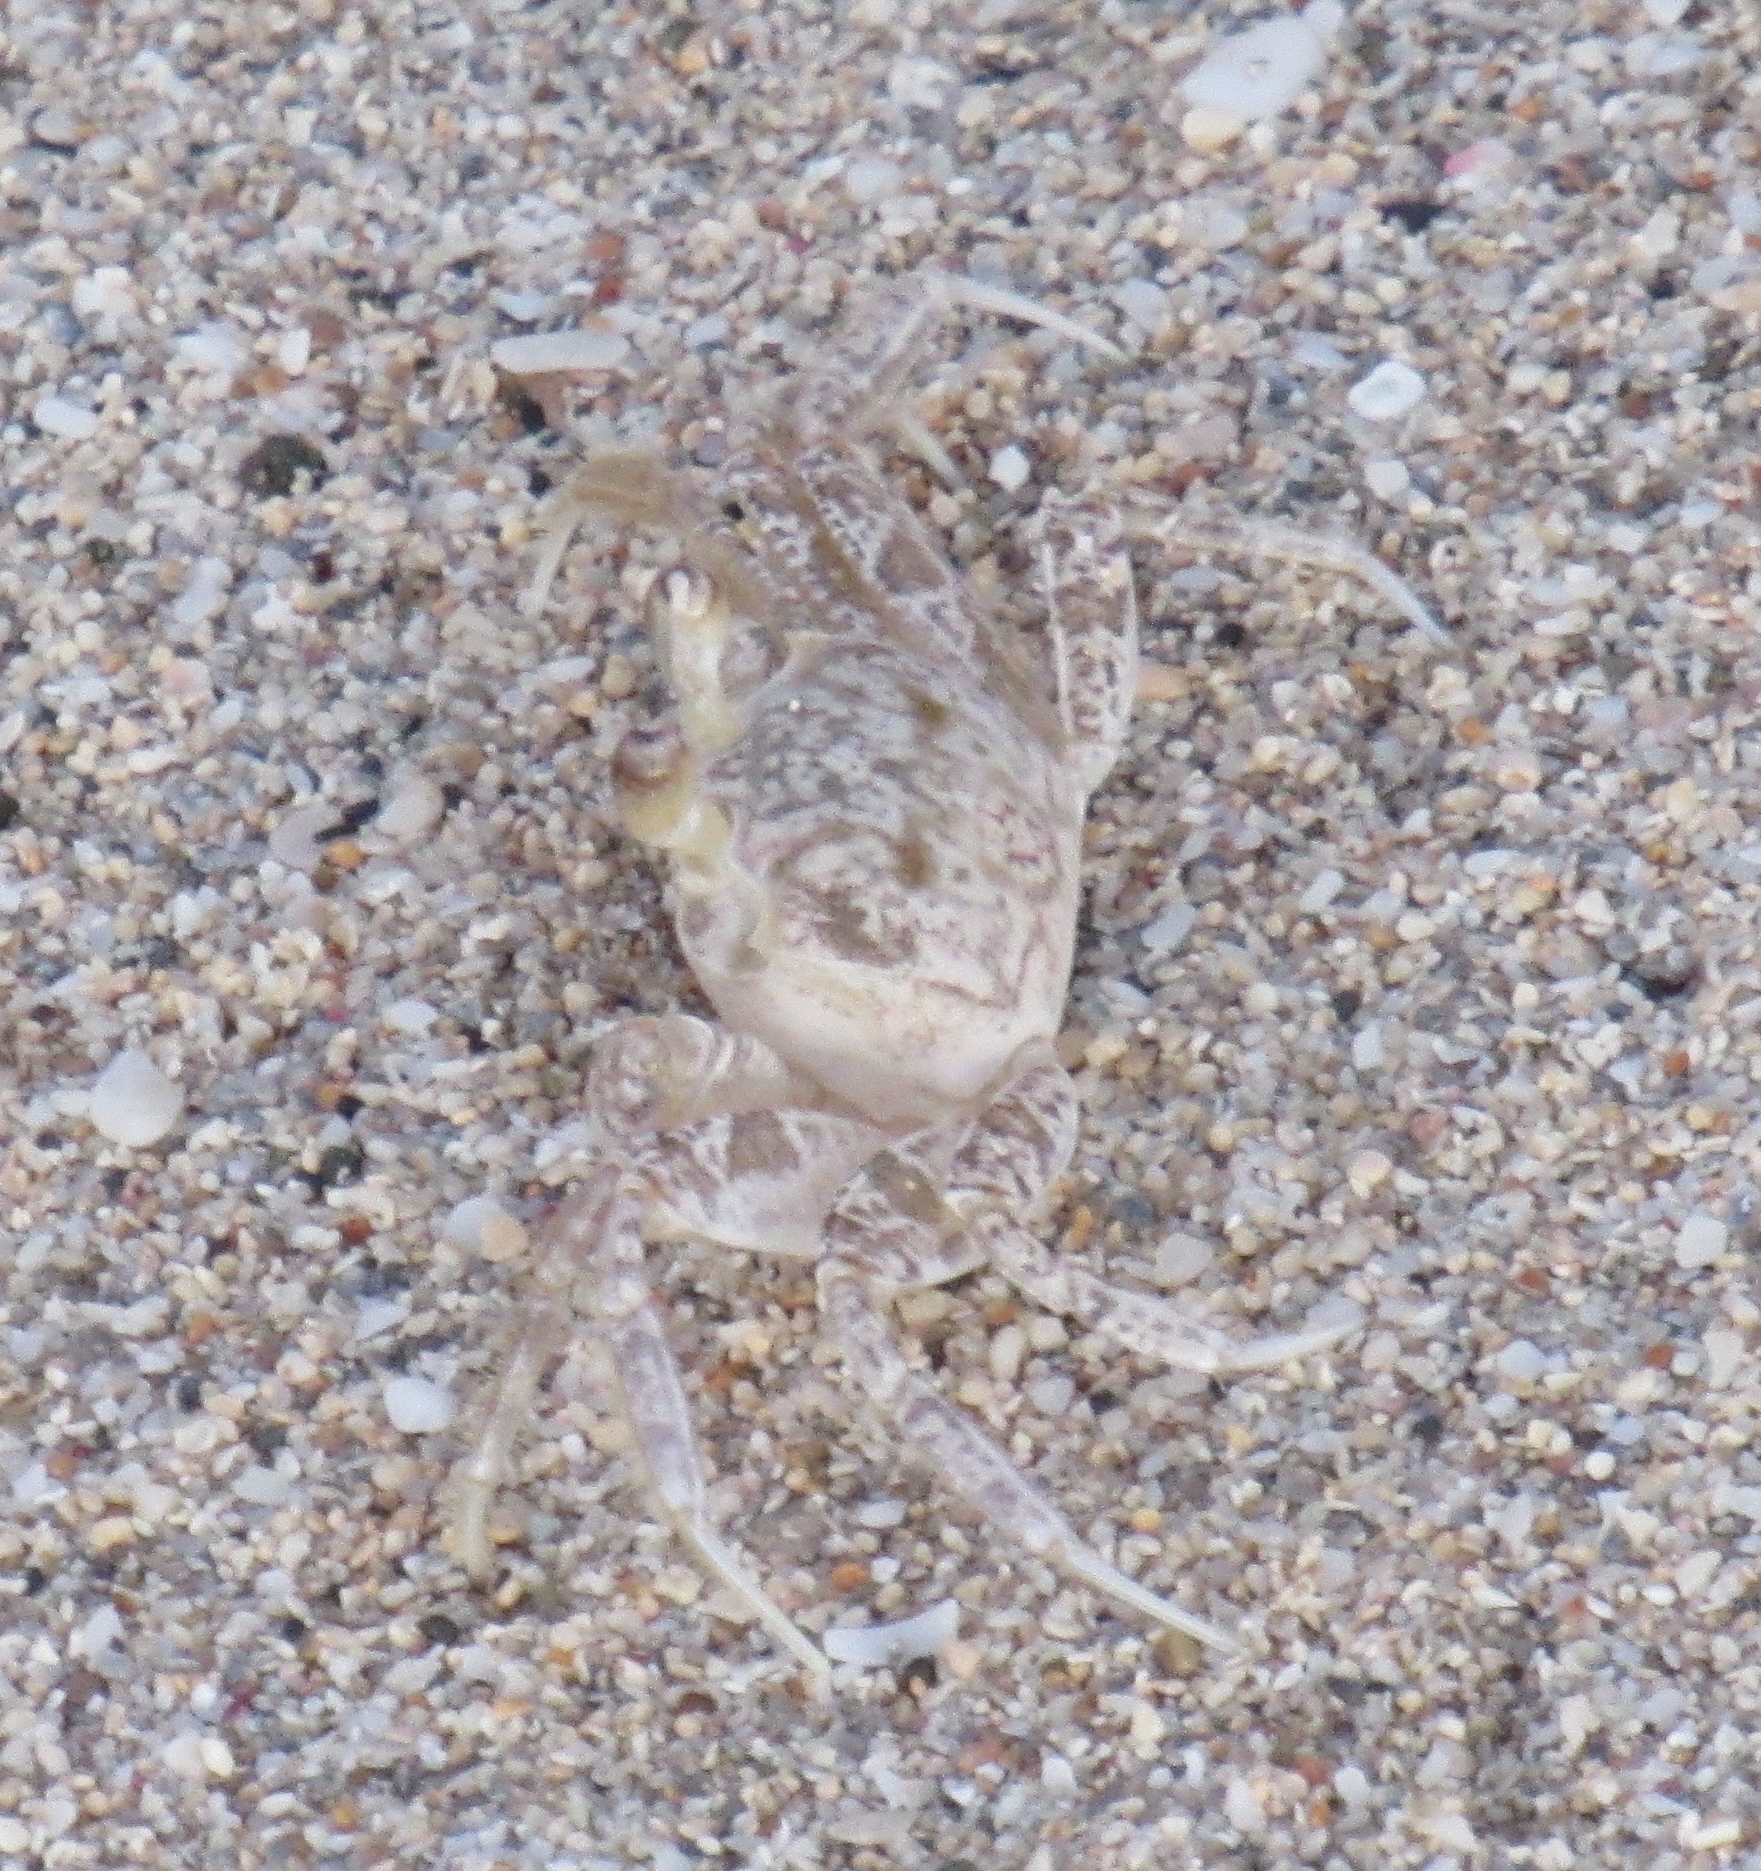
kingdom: Animalia
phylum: Arthropoda
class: Malacostraca
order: Decapoda
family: Ocypodidae
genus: Ocypode
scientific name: Ocypode quadrata
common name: Ghost crab
